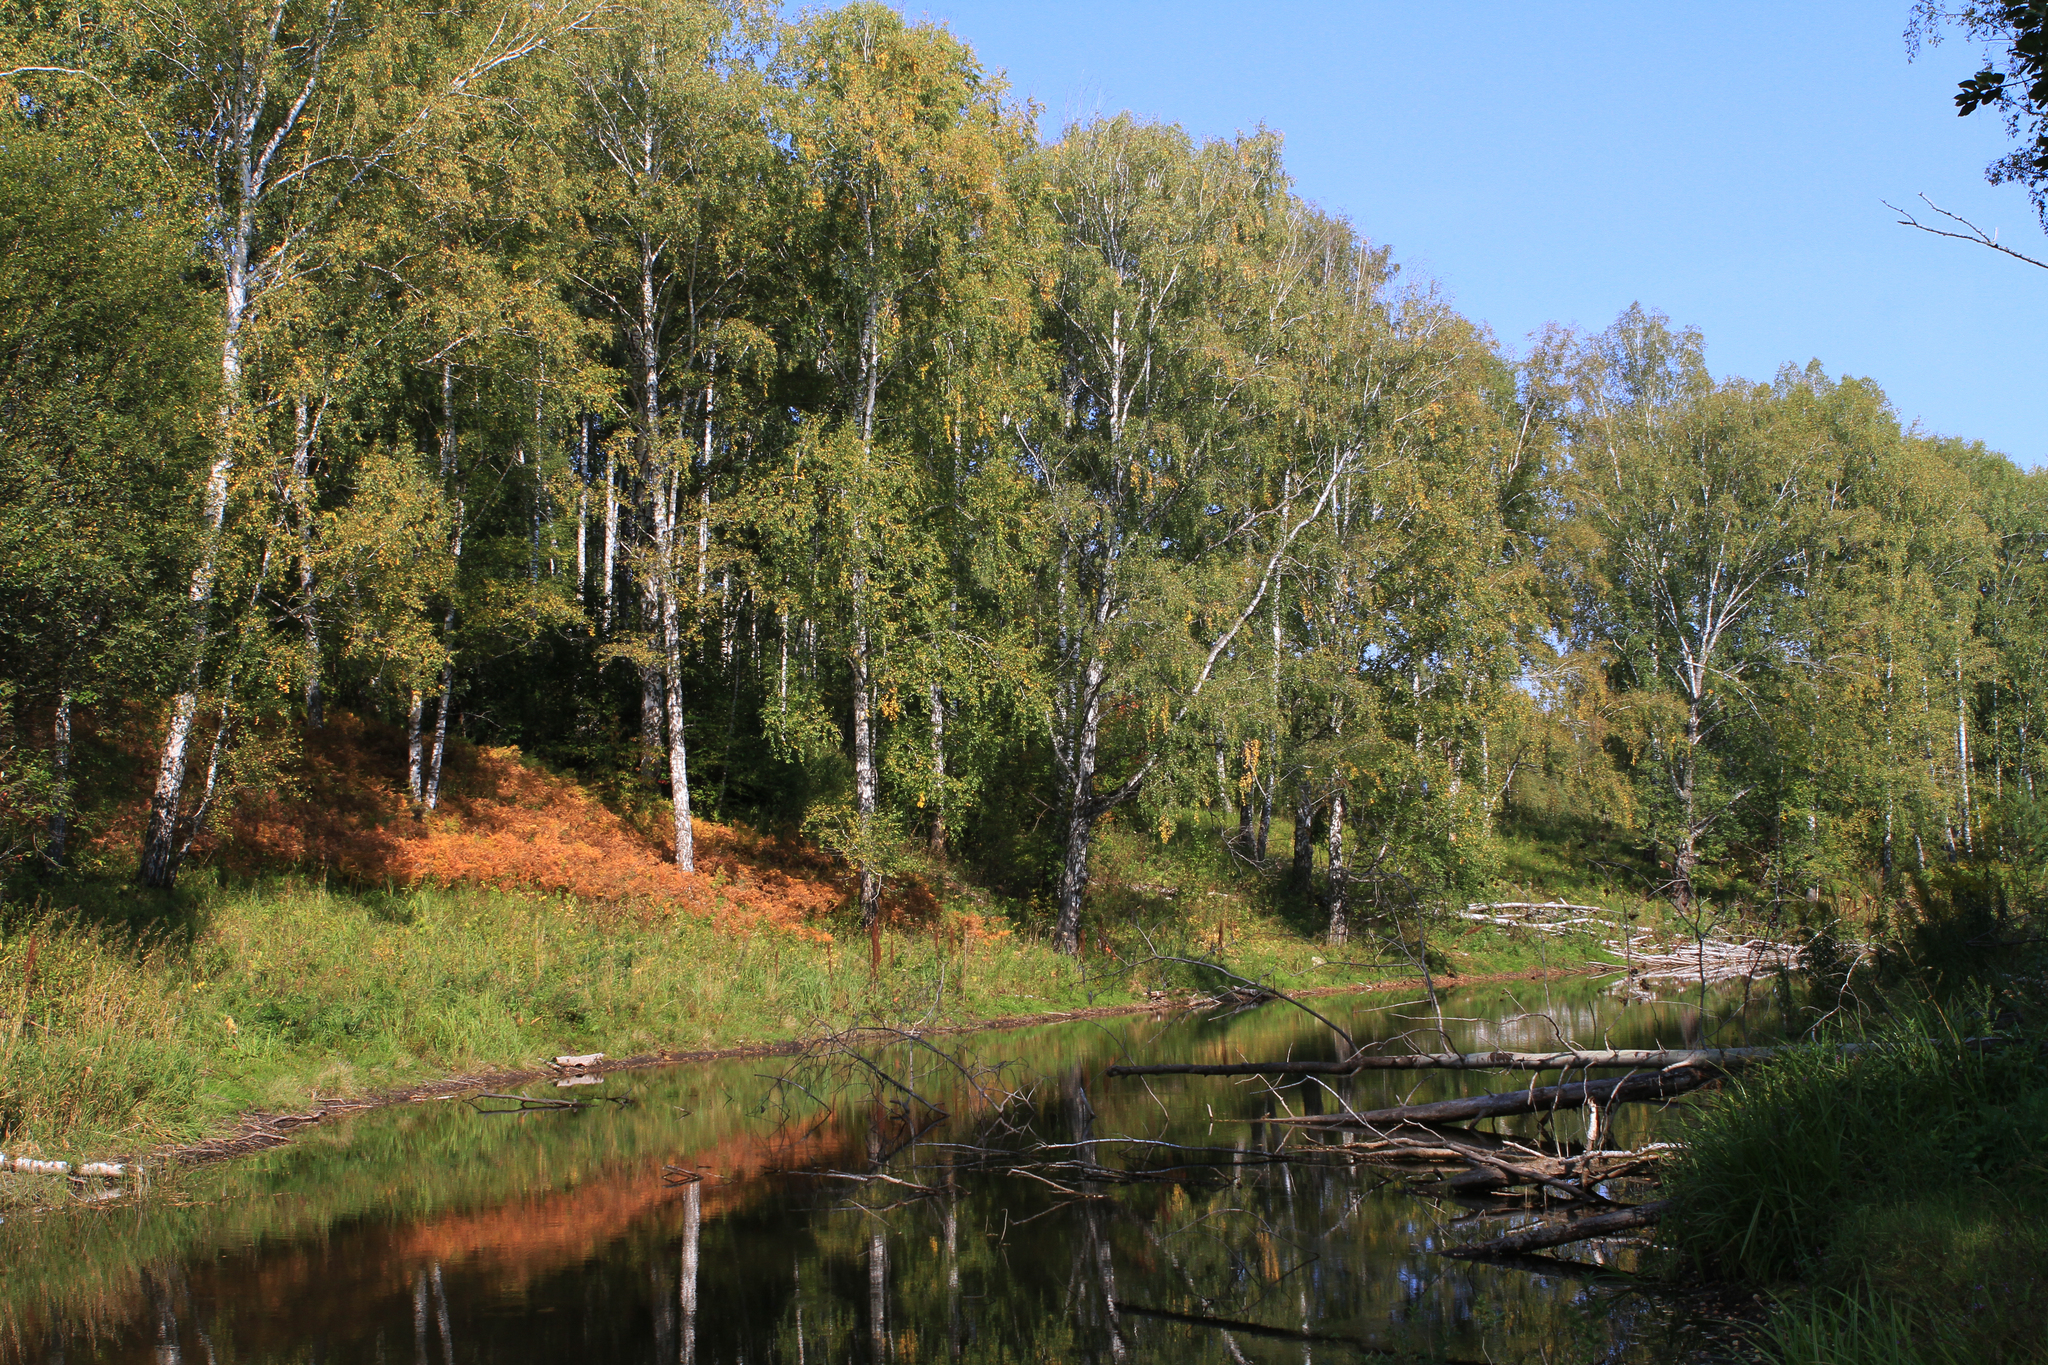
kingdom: Plantae
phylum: Tracheophyta
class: Magnoliopsida
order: Fagales
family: Betulaceae
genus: Betula
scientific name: Betula pendula
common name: Silver birch
